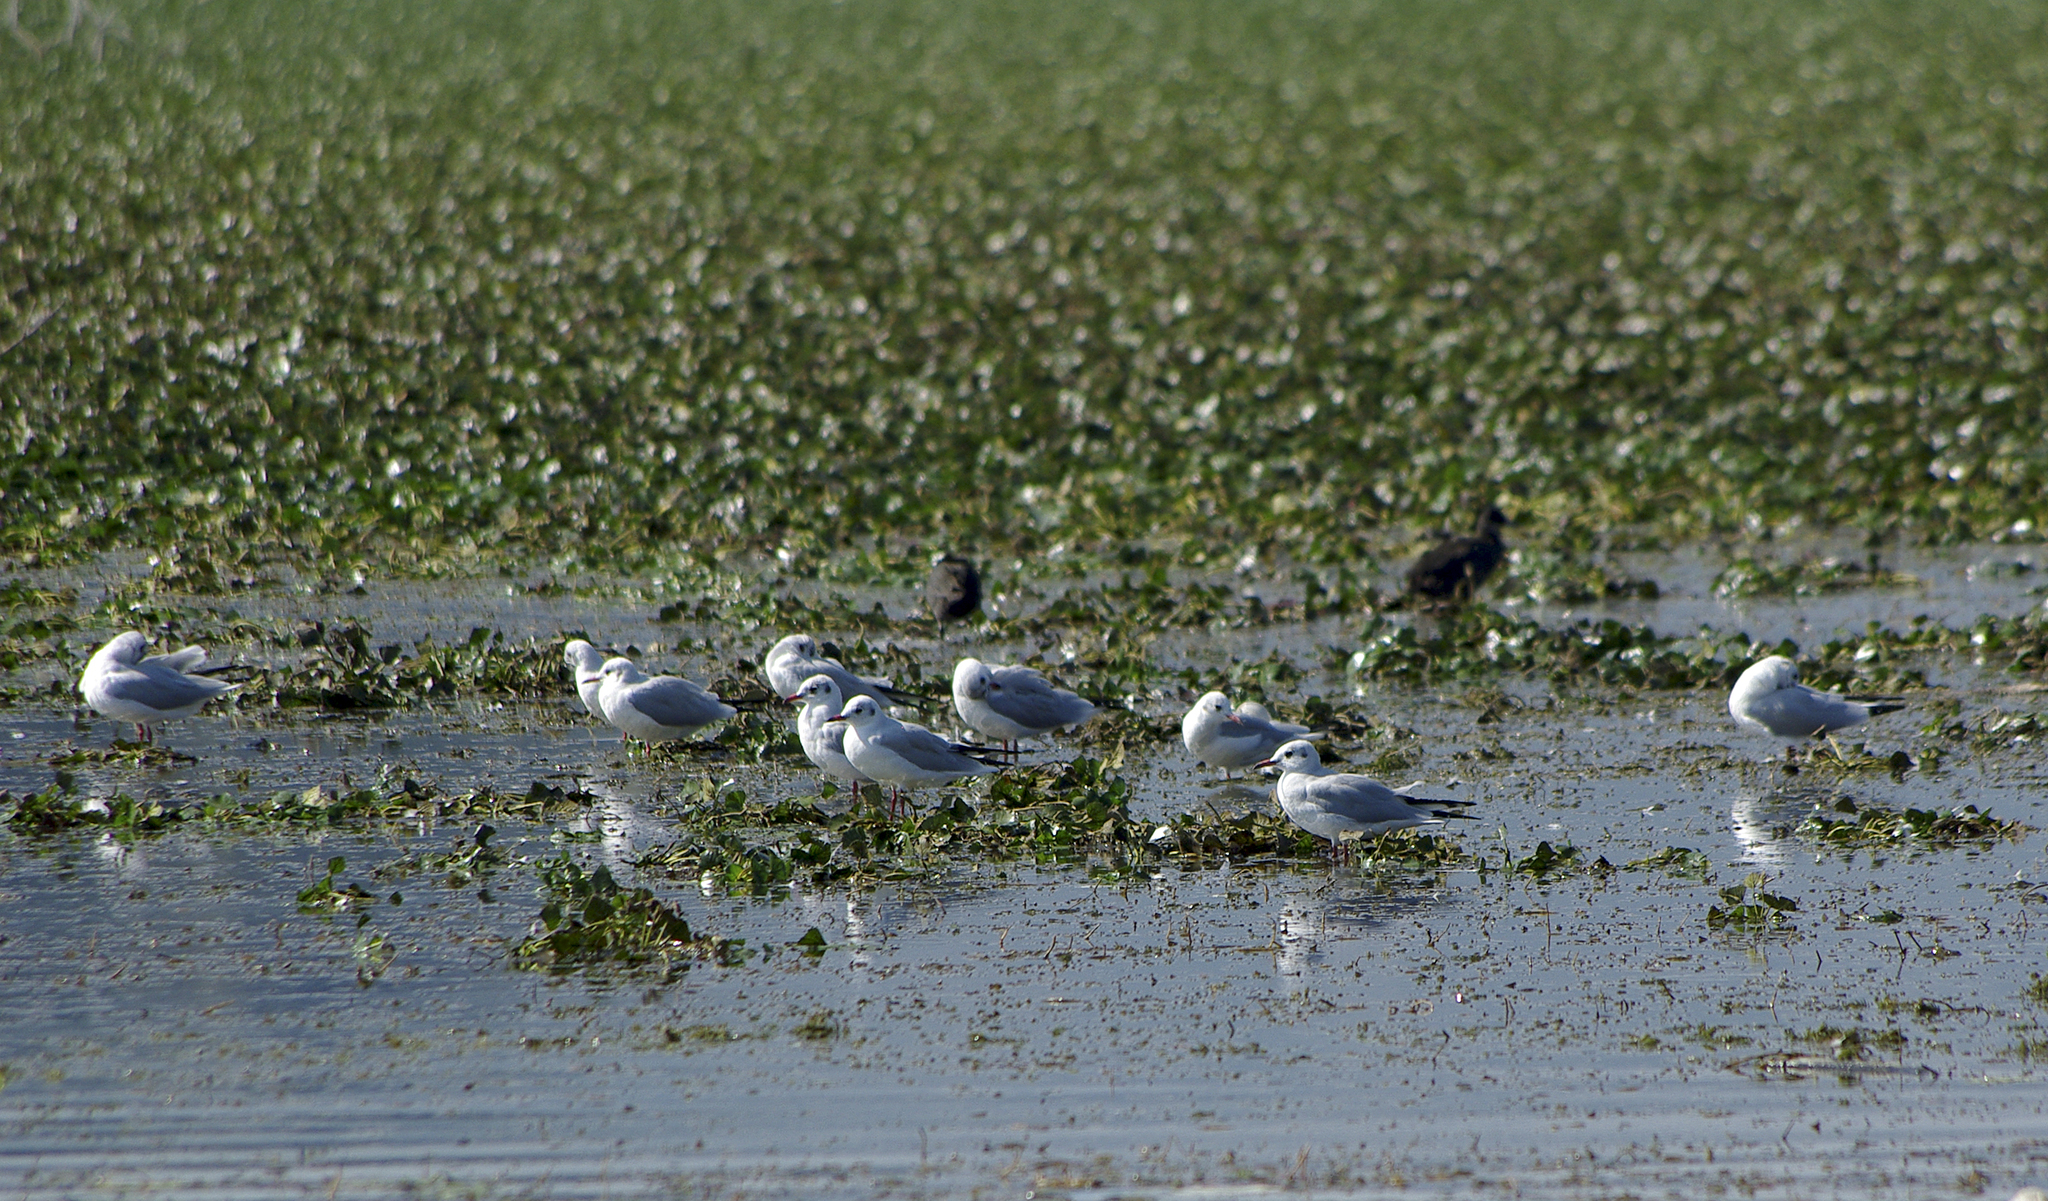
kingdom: Animalia
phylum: Chordata
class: Aves
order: Charadriiformes
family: Laridae
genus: Chroicocephalus
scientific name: Chroicocephalus ridibundus
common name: Black-headed gull
